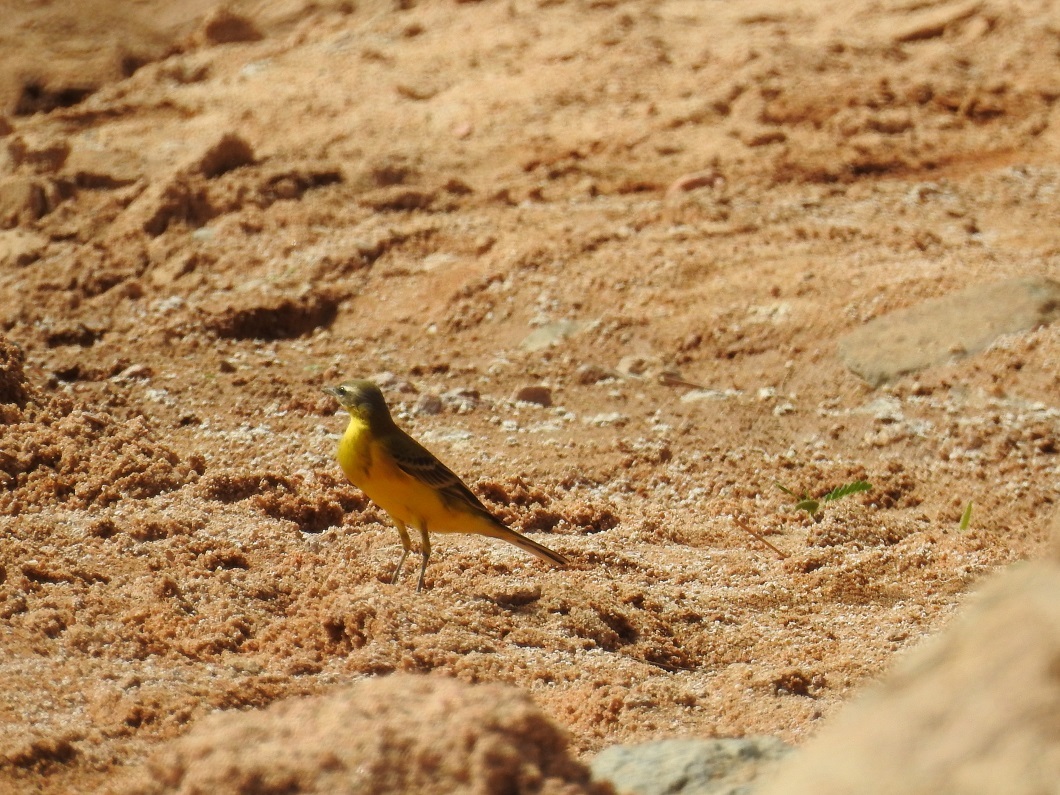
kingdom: Animalia
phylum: Chordata
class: Aves
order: Passeriformes
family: Motacillidae
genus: Motacilla
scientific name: Motacilla flava
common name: Western yellow wagtail
